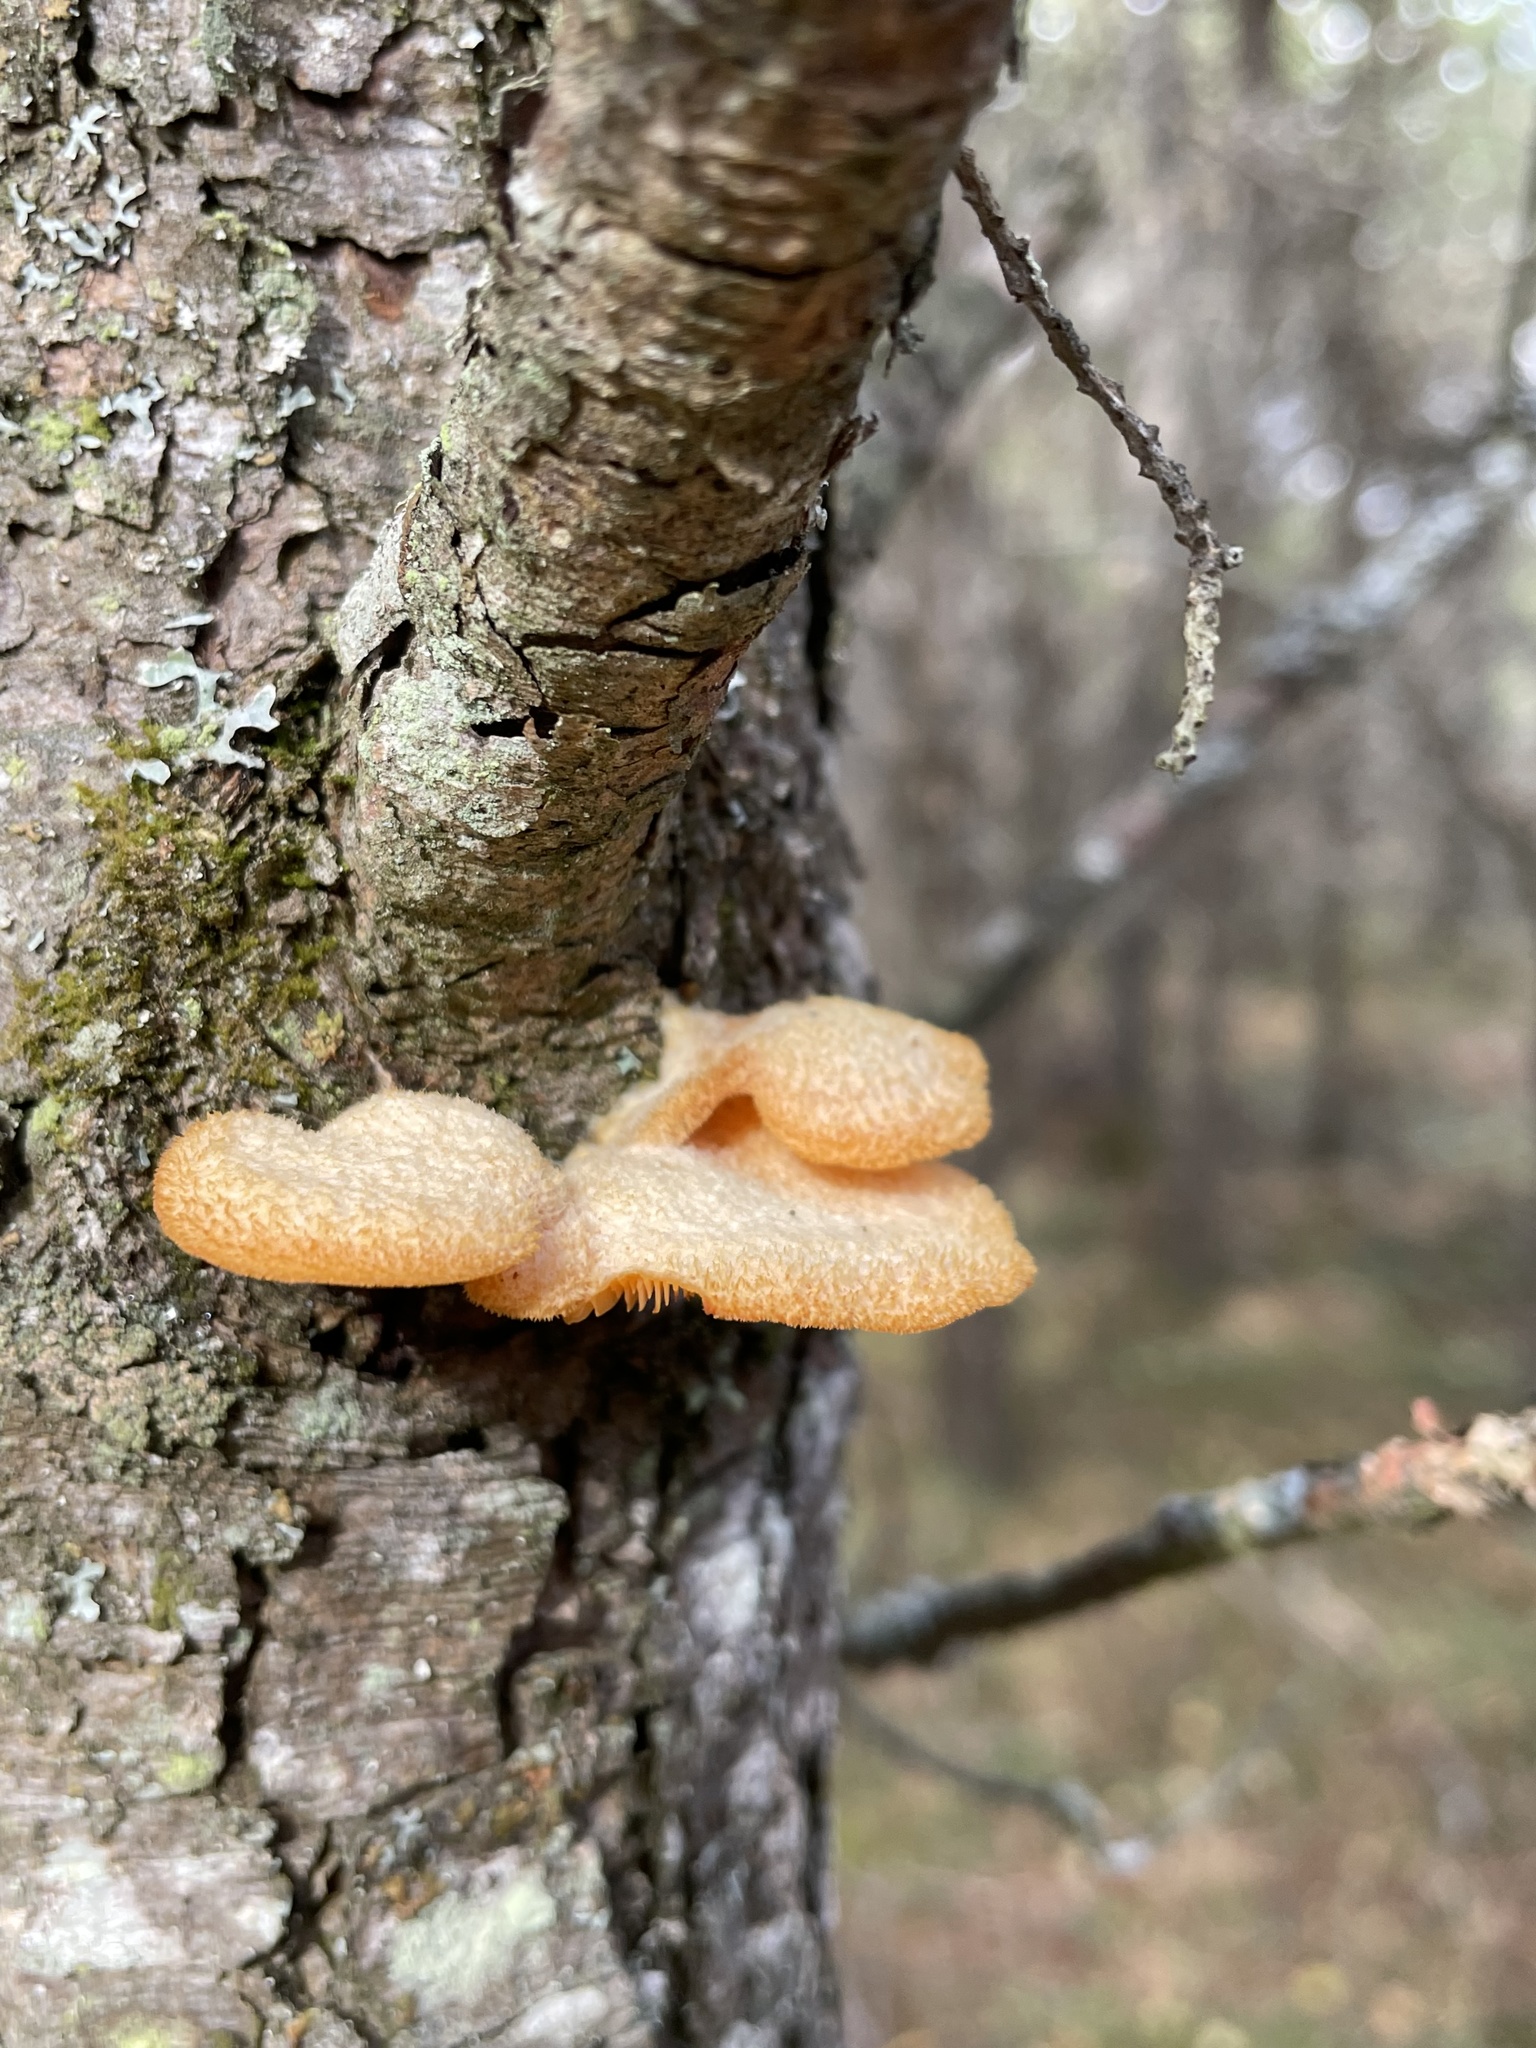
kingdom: Fungi
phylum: Basidiomycota
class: Agaricomycetes
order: Agaricales
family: Phyllotopsidaceae
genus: Phyllotopsis
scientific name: Phyllotopsis nidulans
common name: Orange mock oyster
